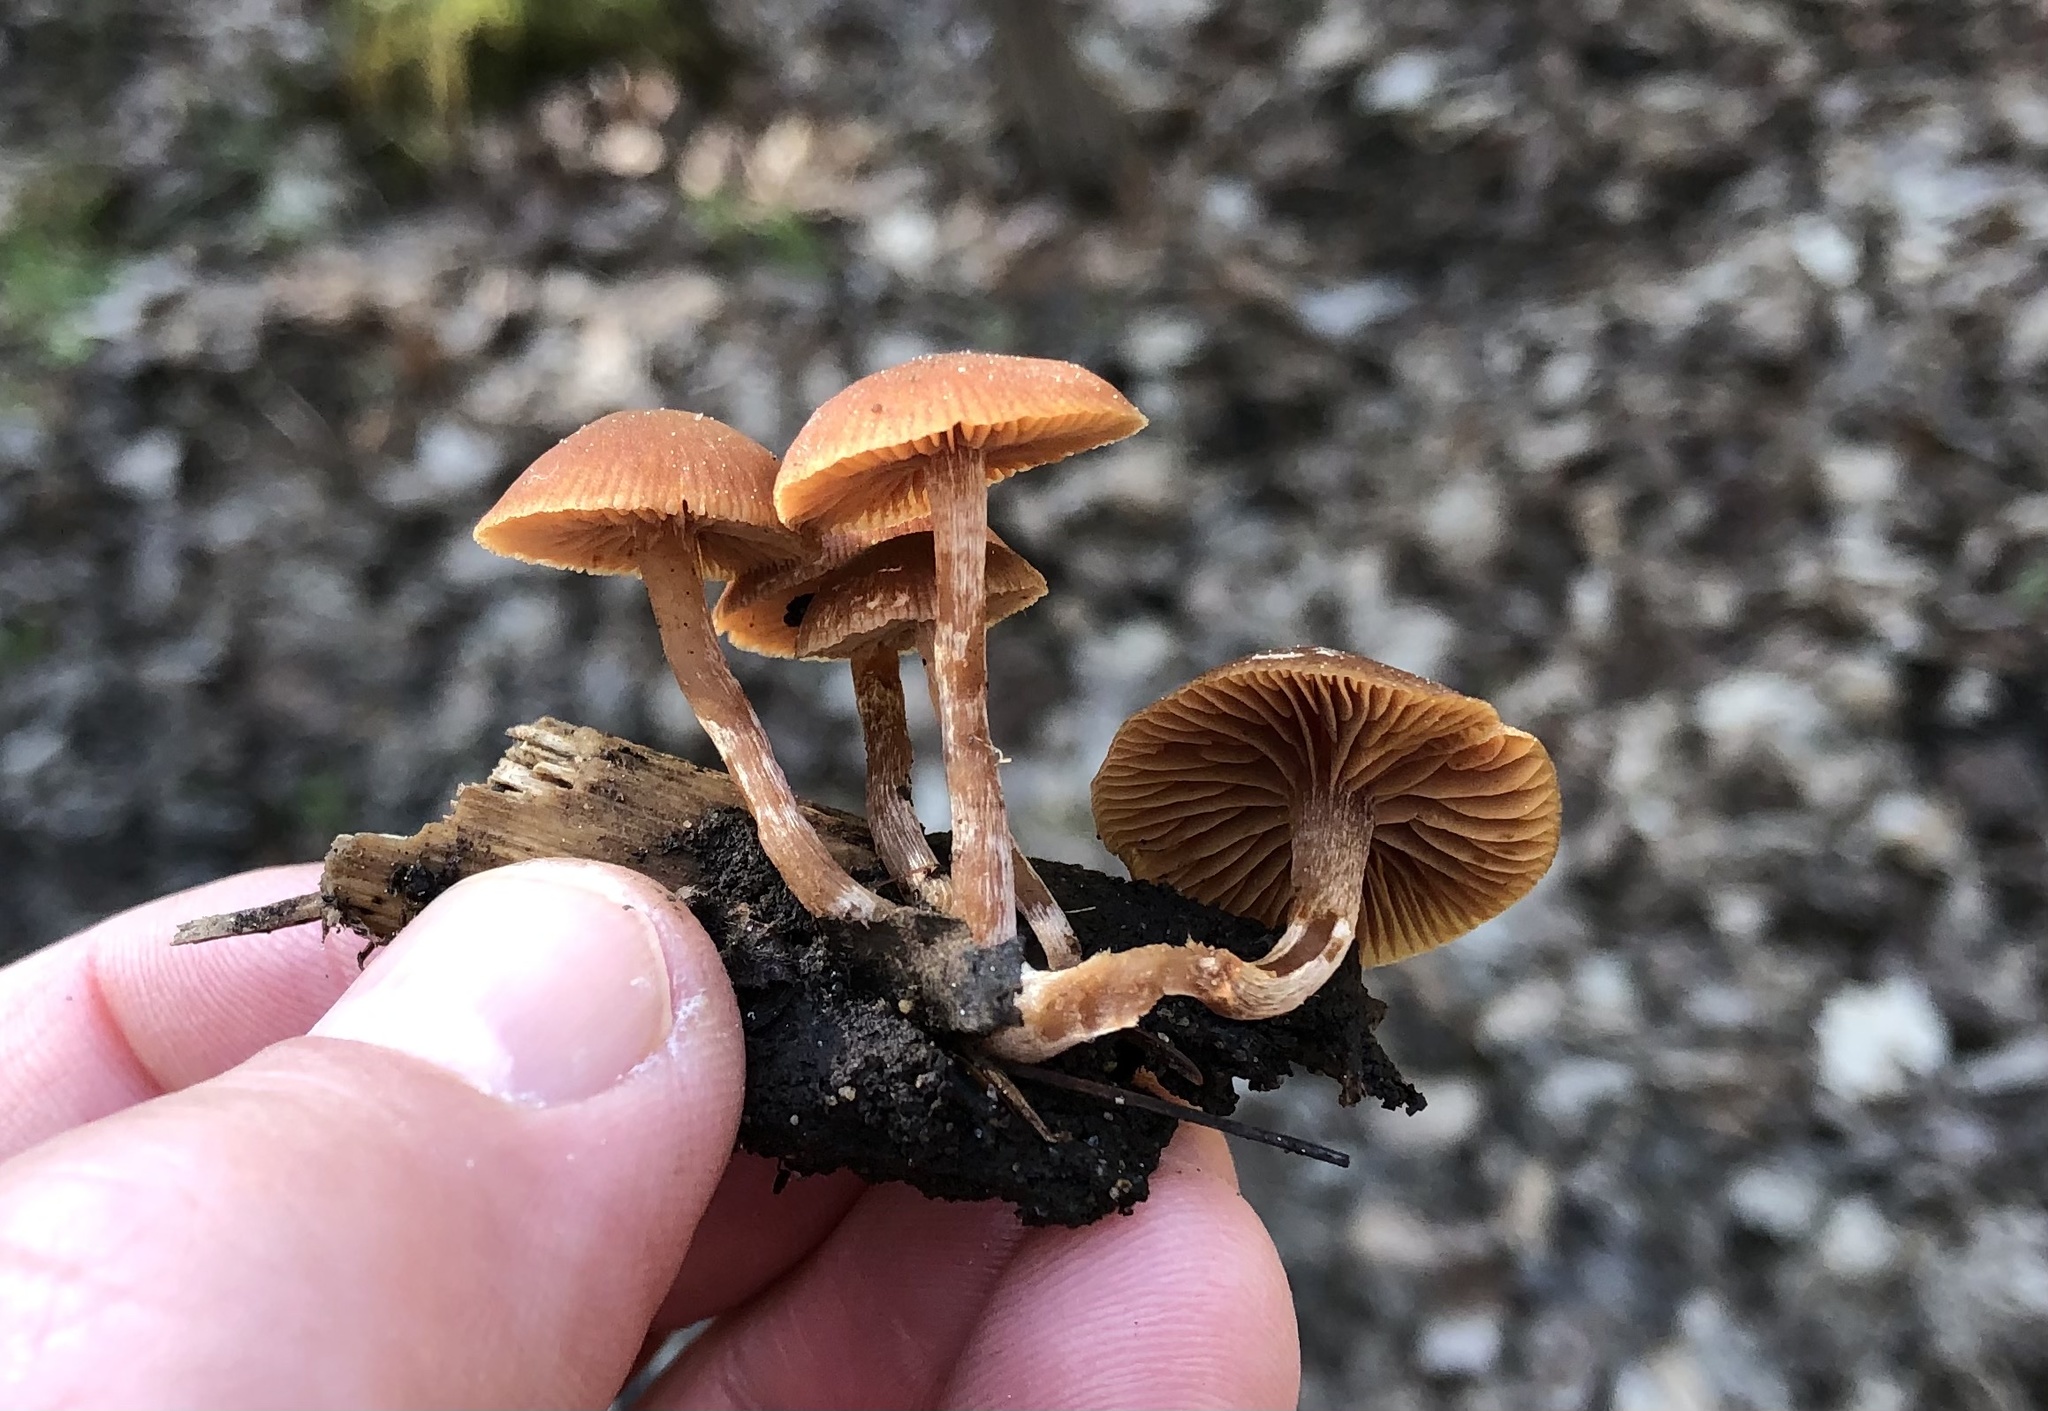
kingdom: Fungi
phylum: Basidiomycota
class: Agaricomycetes
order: Agaricales
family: Tubariaceae
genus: Tubaria
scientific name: Tubaria furfuracea
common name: Scurfy twiglet
